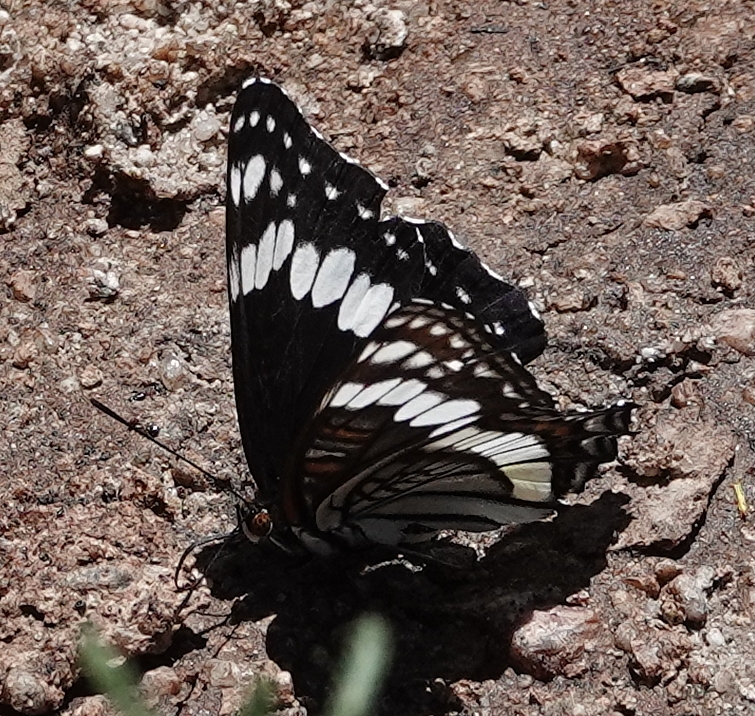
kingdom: Animalia
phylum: Arthropoda
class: Insecta
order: Lepidoptera
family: Nymphalidae
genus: Limenitis
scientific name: Limenitis weidemeyerii
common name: Weidemeyer's admiral
